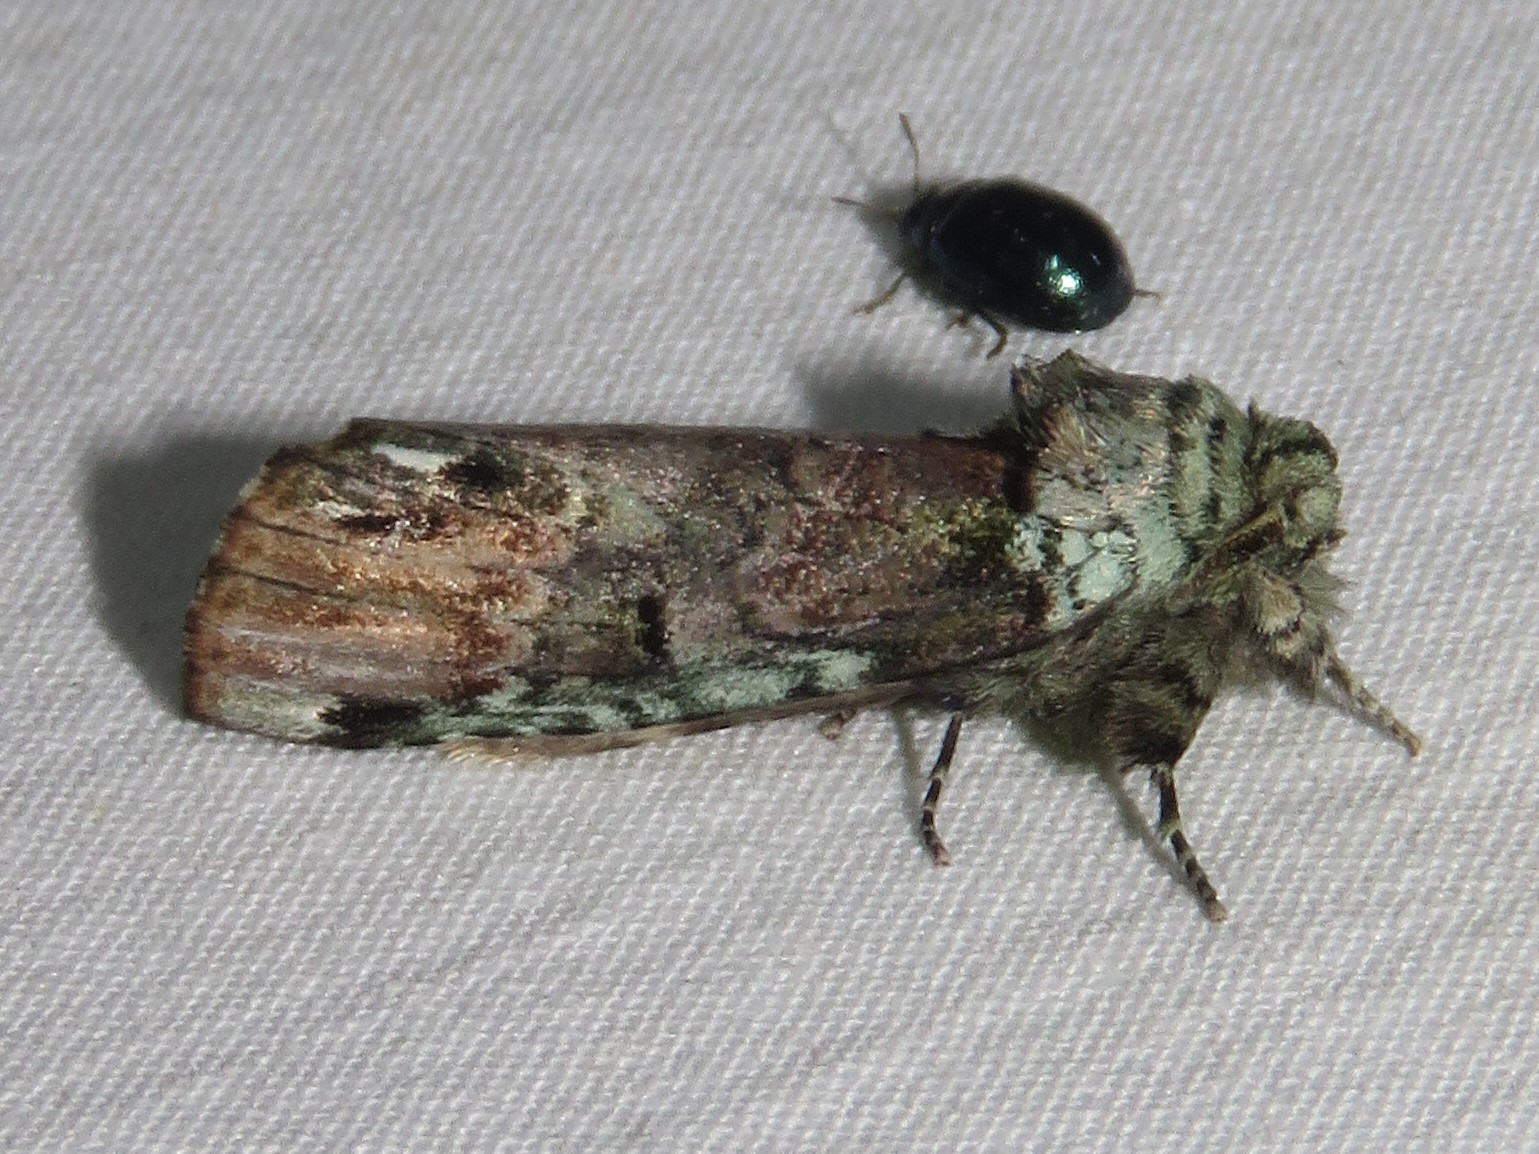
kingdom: Animalia
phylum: Arthropoda
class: Insecta
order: Lepidoptera
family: Notodontidae
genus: Schizura
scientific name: Schizura
